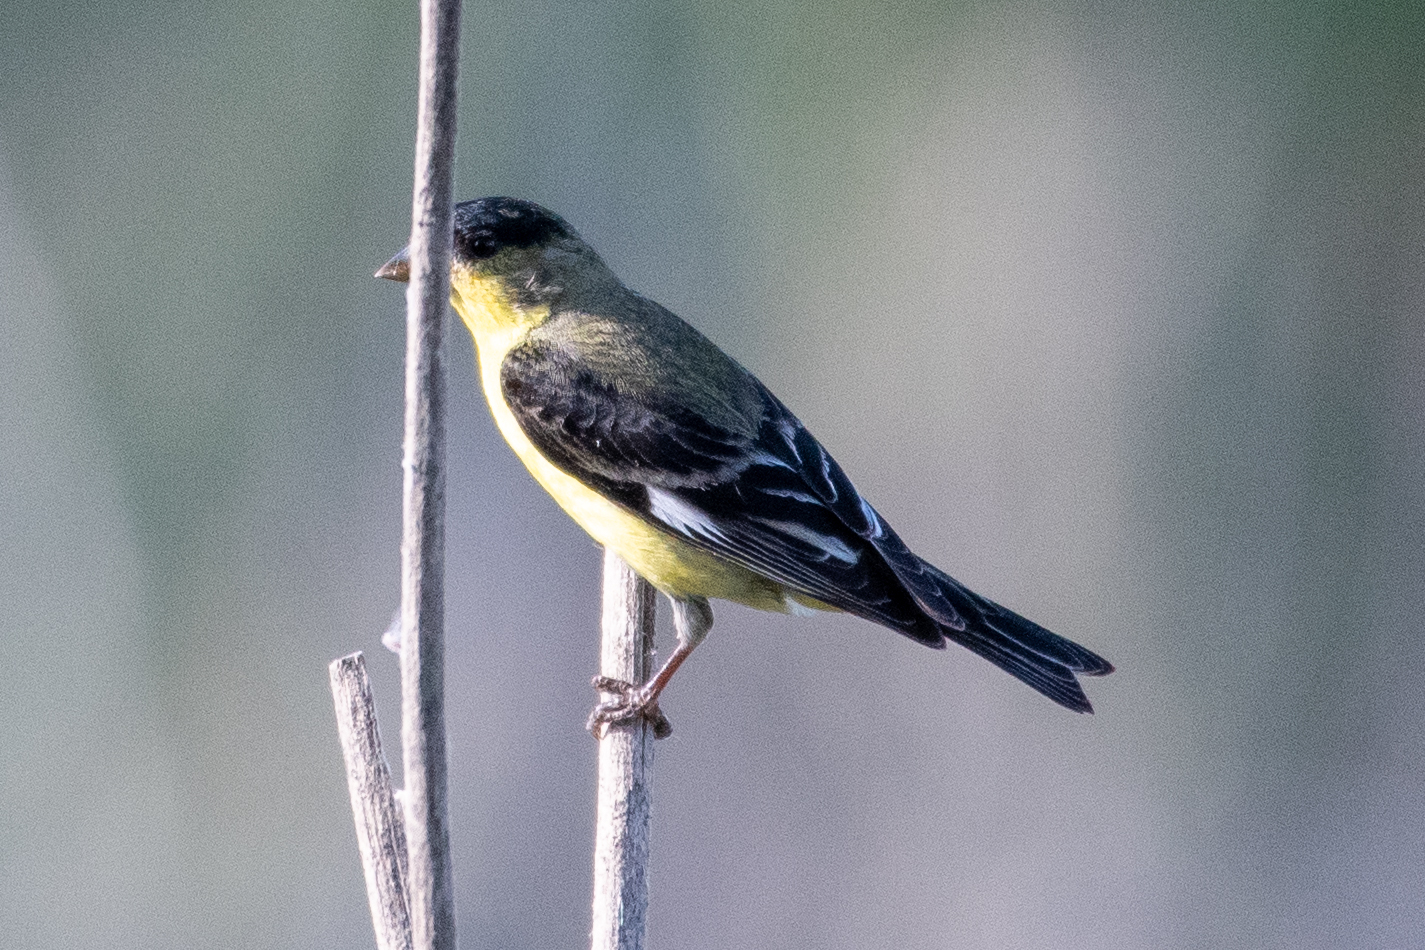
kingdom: Animalia
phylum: Chordata
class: Aves
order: Passeriformes
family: Fringillidae
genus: Spinus
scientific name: Spinus psaltria
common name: Lesser goldfinch
